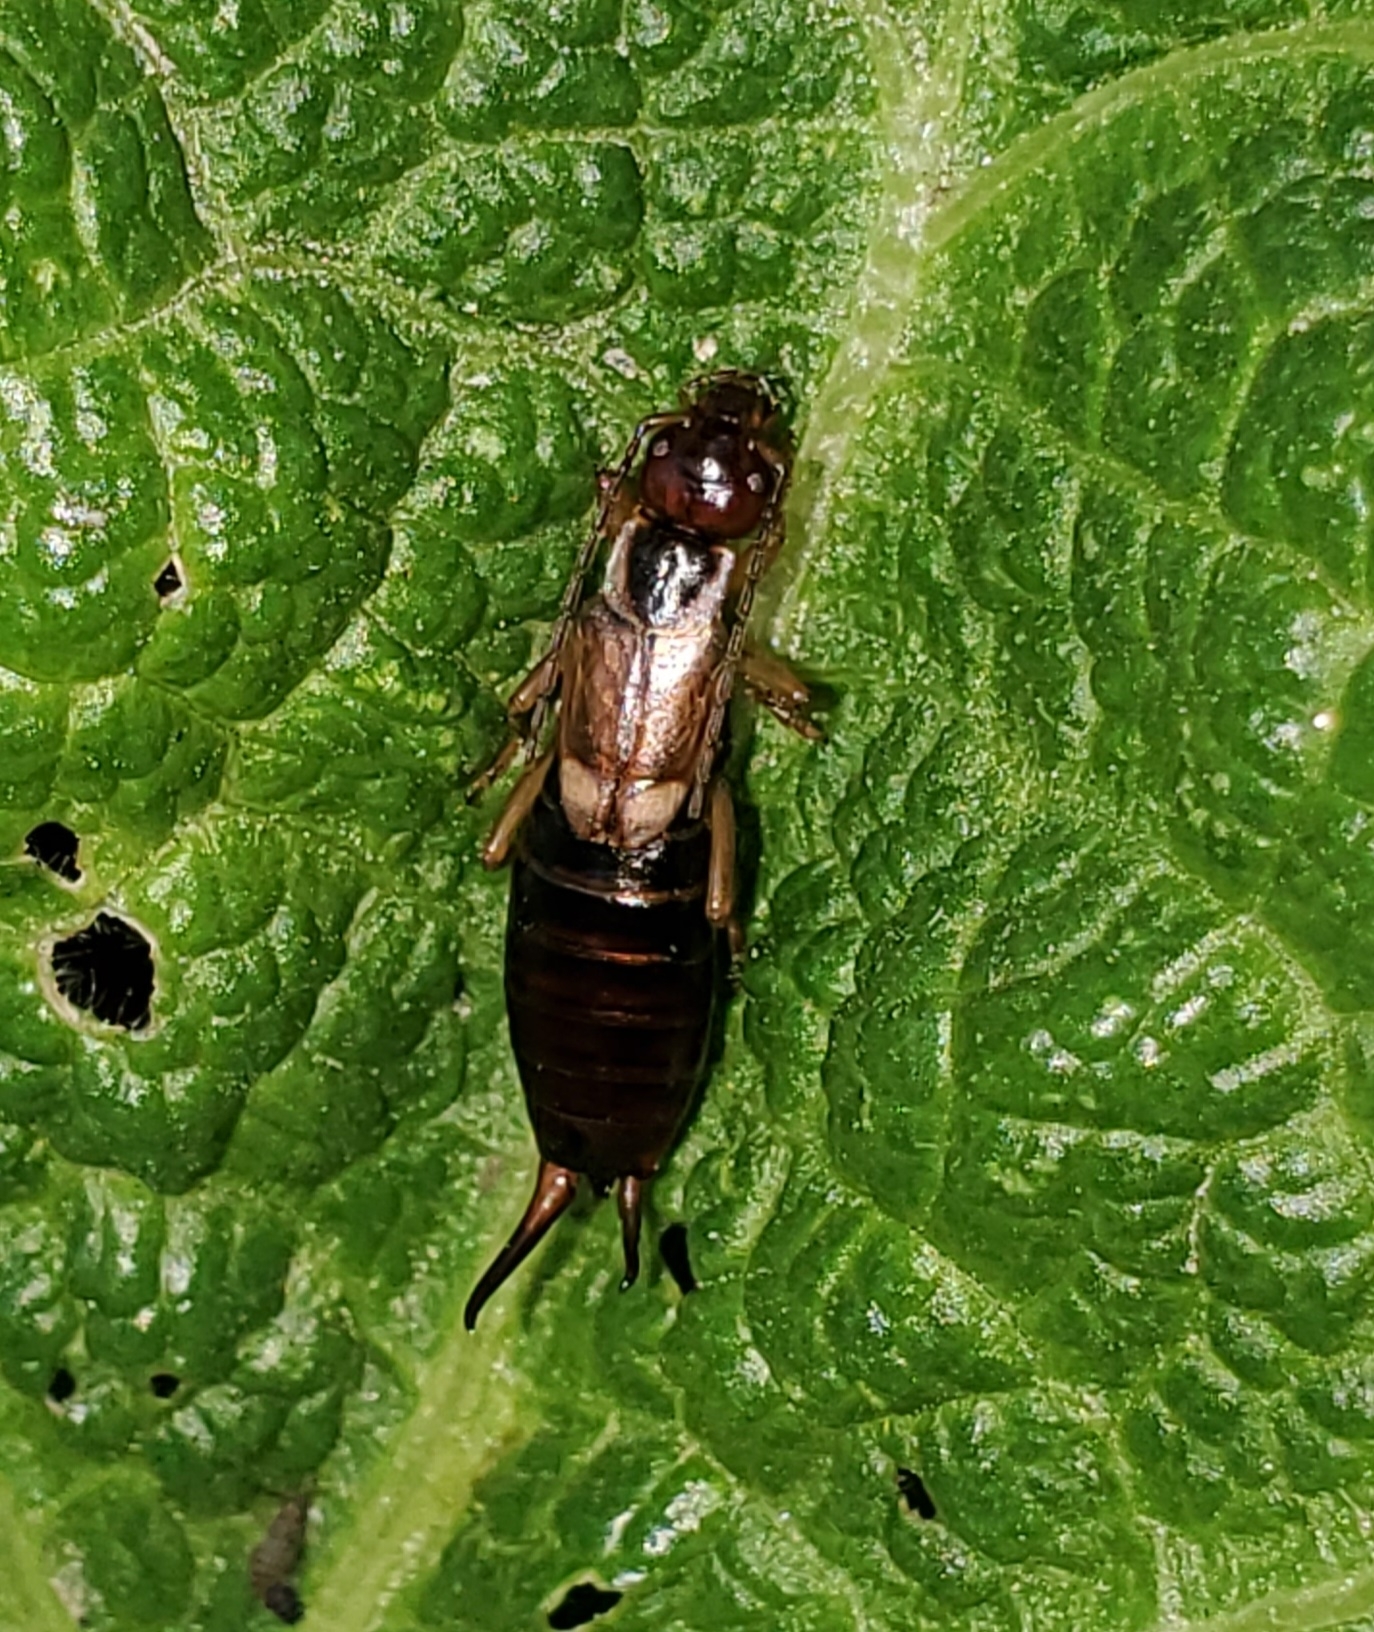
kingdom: Animalia
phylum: Arthropoda
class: Insecta
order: Dermaptera
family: Forficulidae
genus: Forficula
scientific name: Forficula
